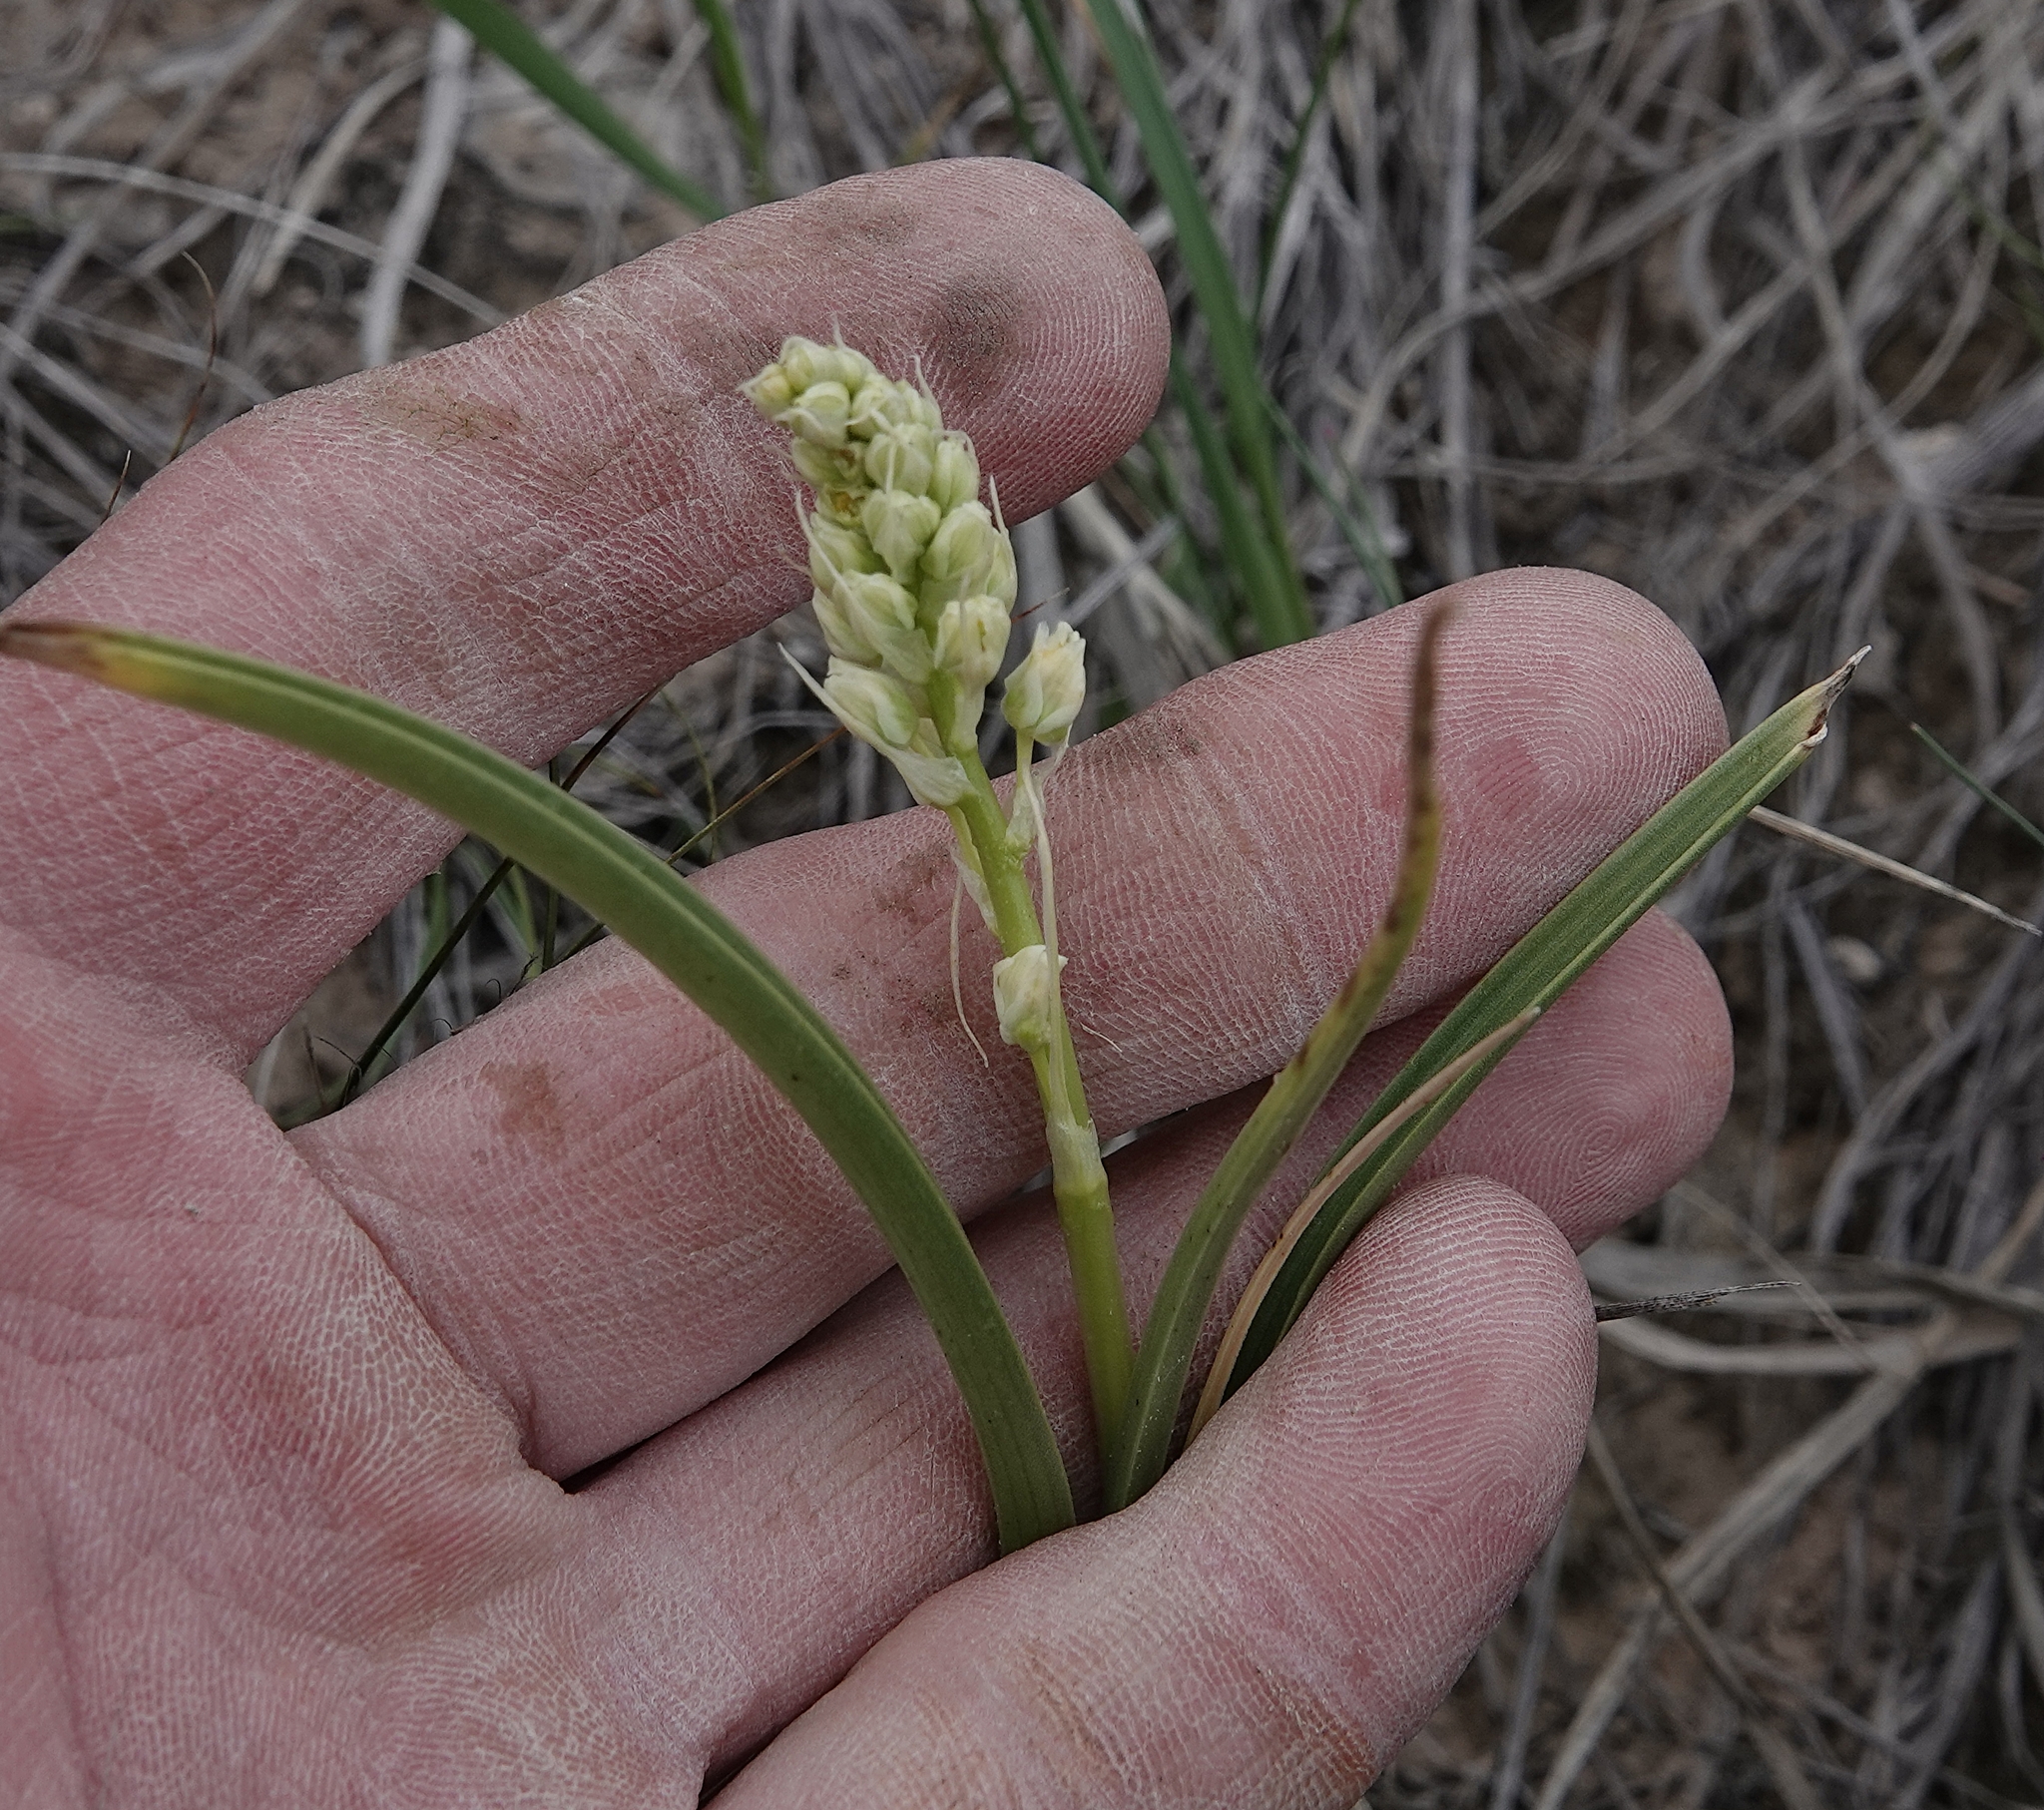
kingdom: Plantae
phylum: Tracheophyta
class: Liliopsida
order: Liliales
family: Melanthiaceae
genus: Toxicoscordion
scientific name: Toxicoscordion venenosum
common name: Meadow death camas
